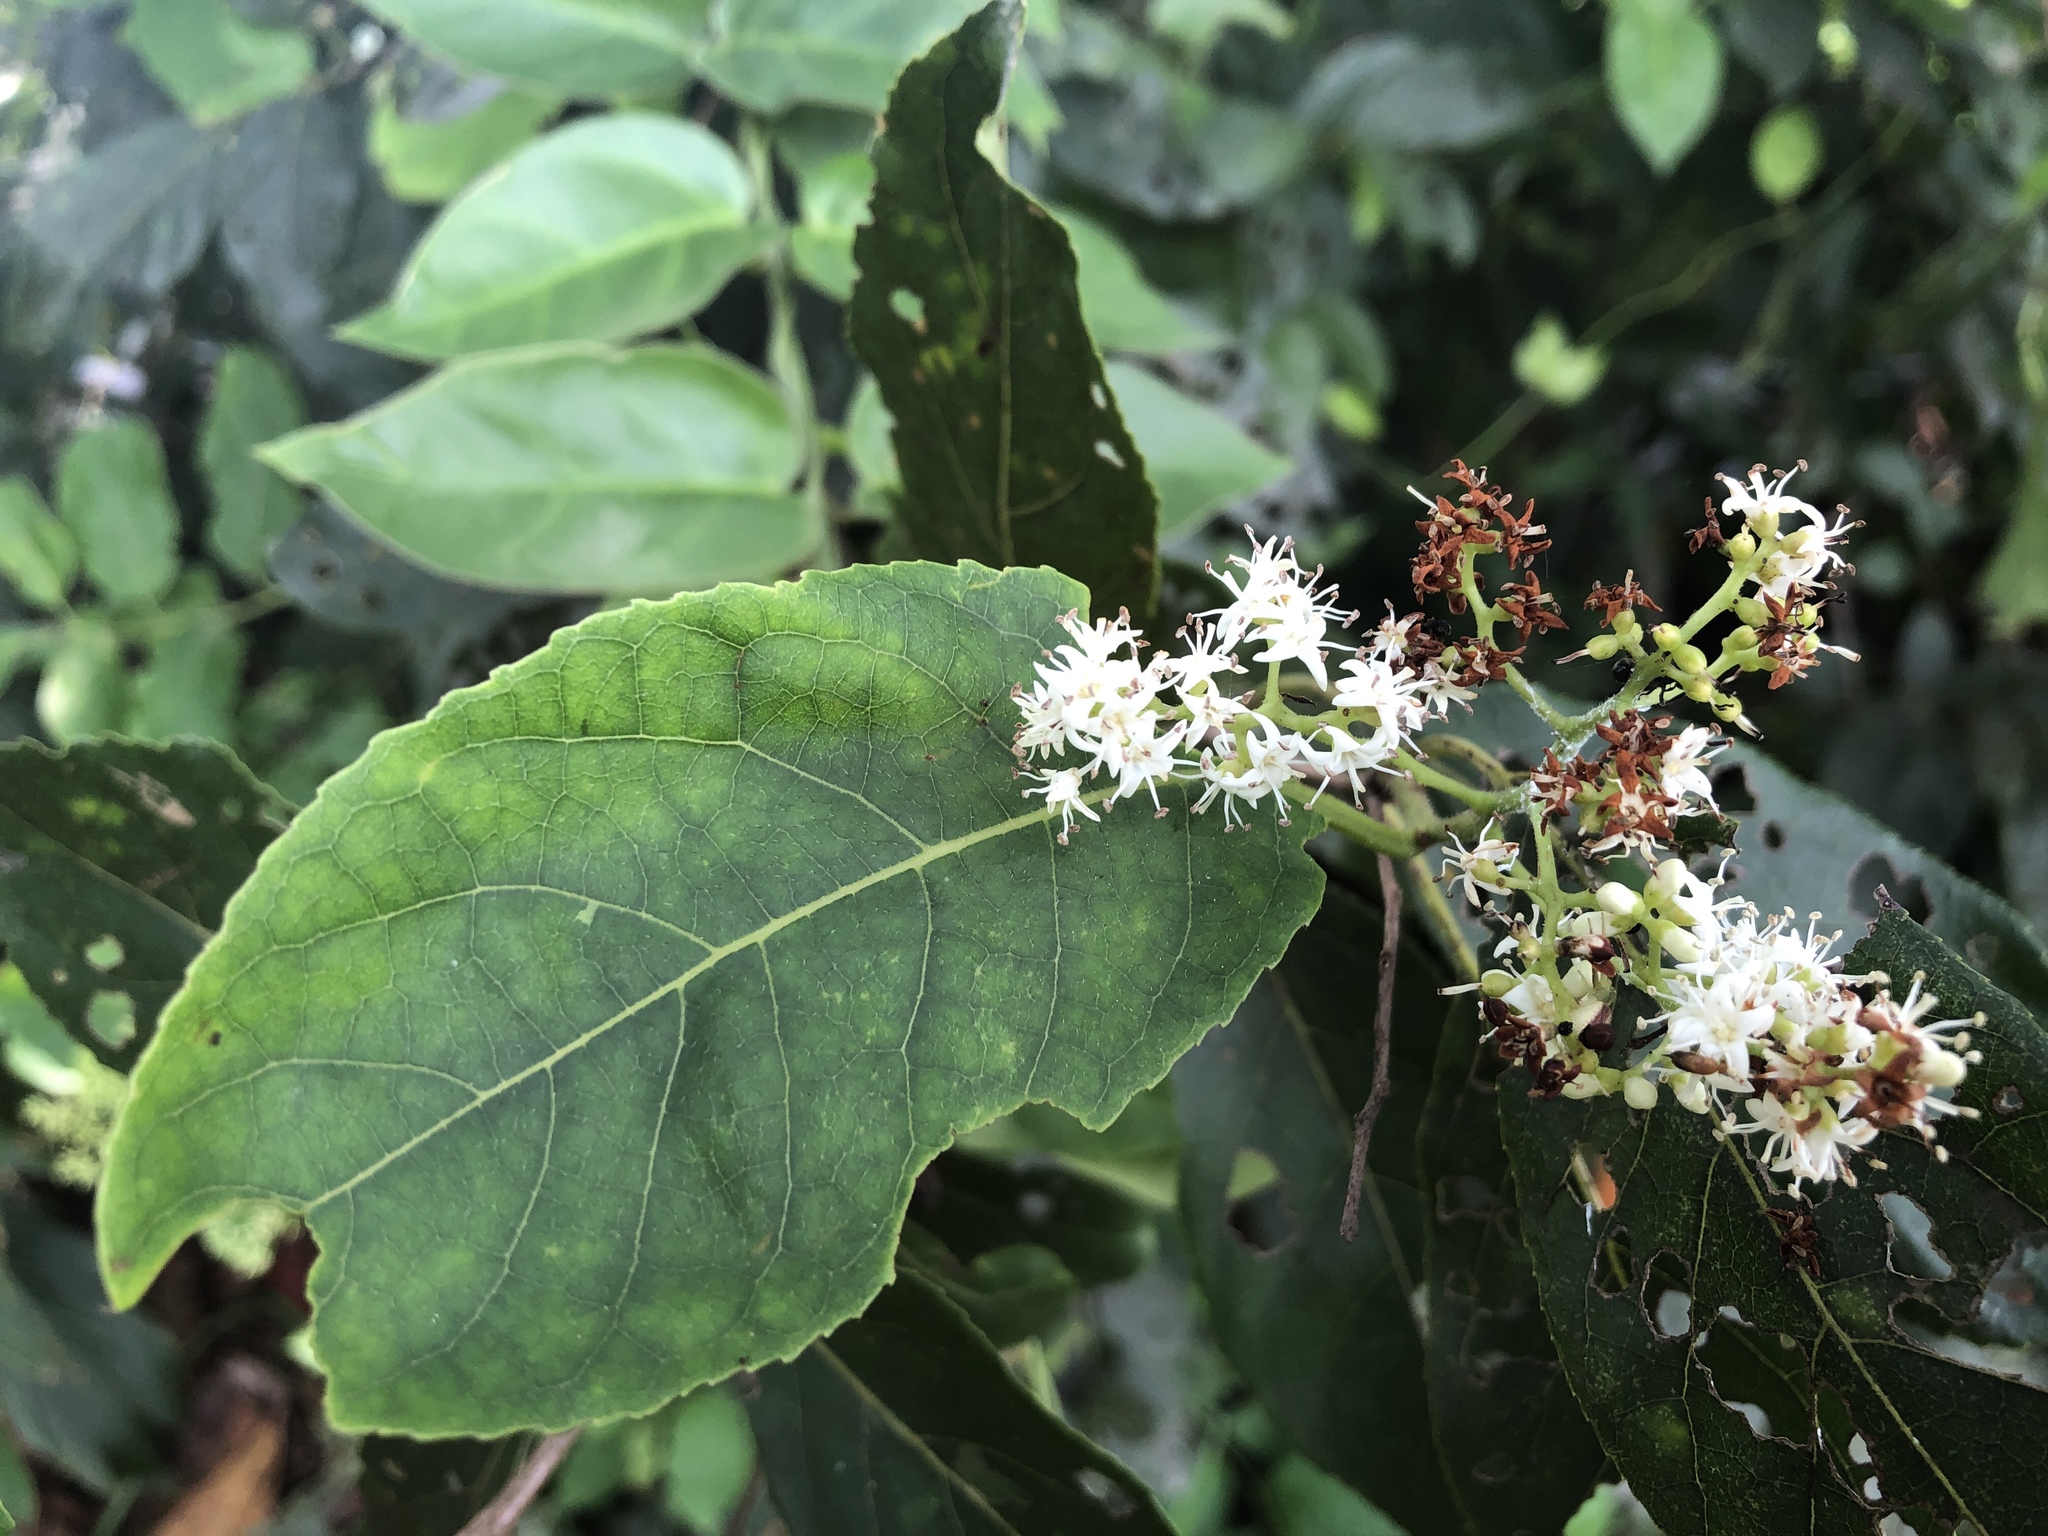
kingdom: Plantae
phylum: Tracheophyta
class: Magnoliopsida
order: Boraginales
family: Ehretiaceae
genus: Ehretia
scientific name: Ehretia acuminata
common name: Kodo wood
